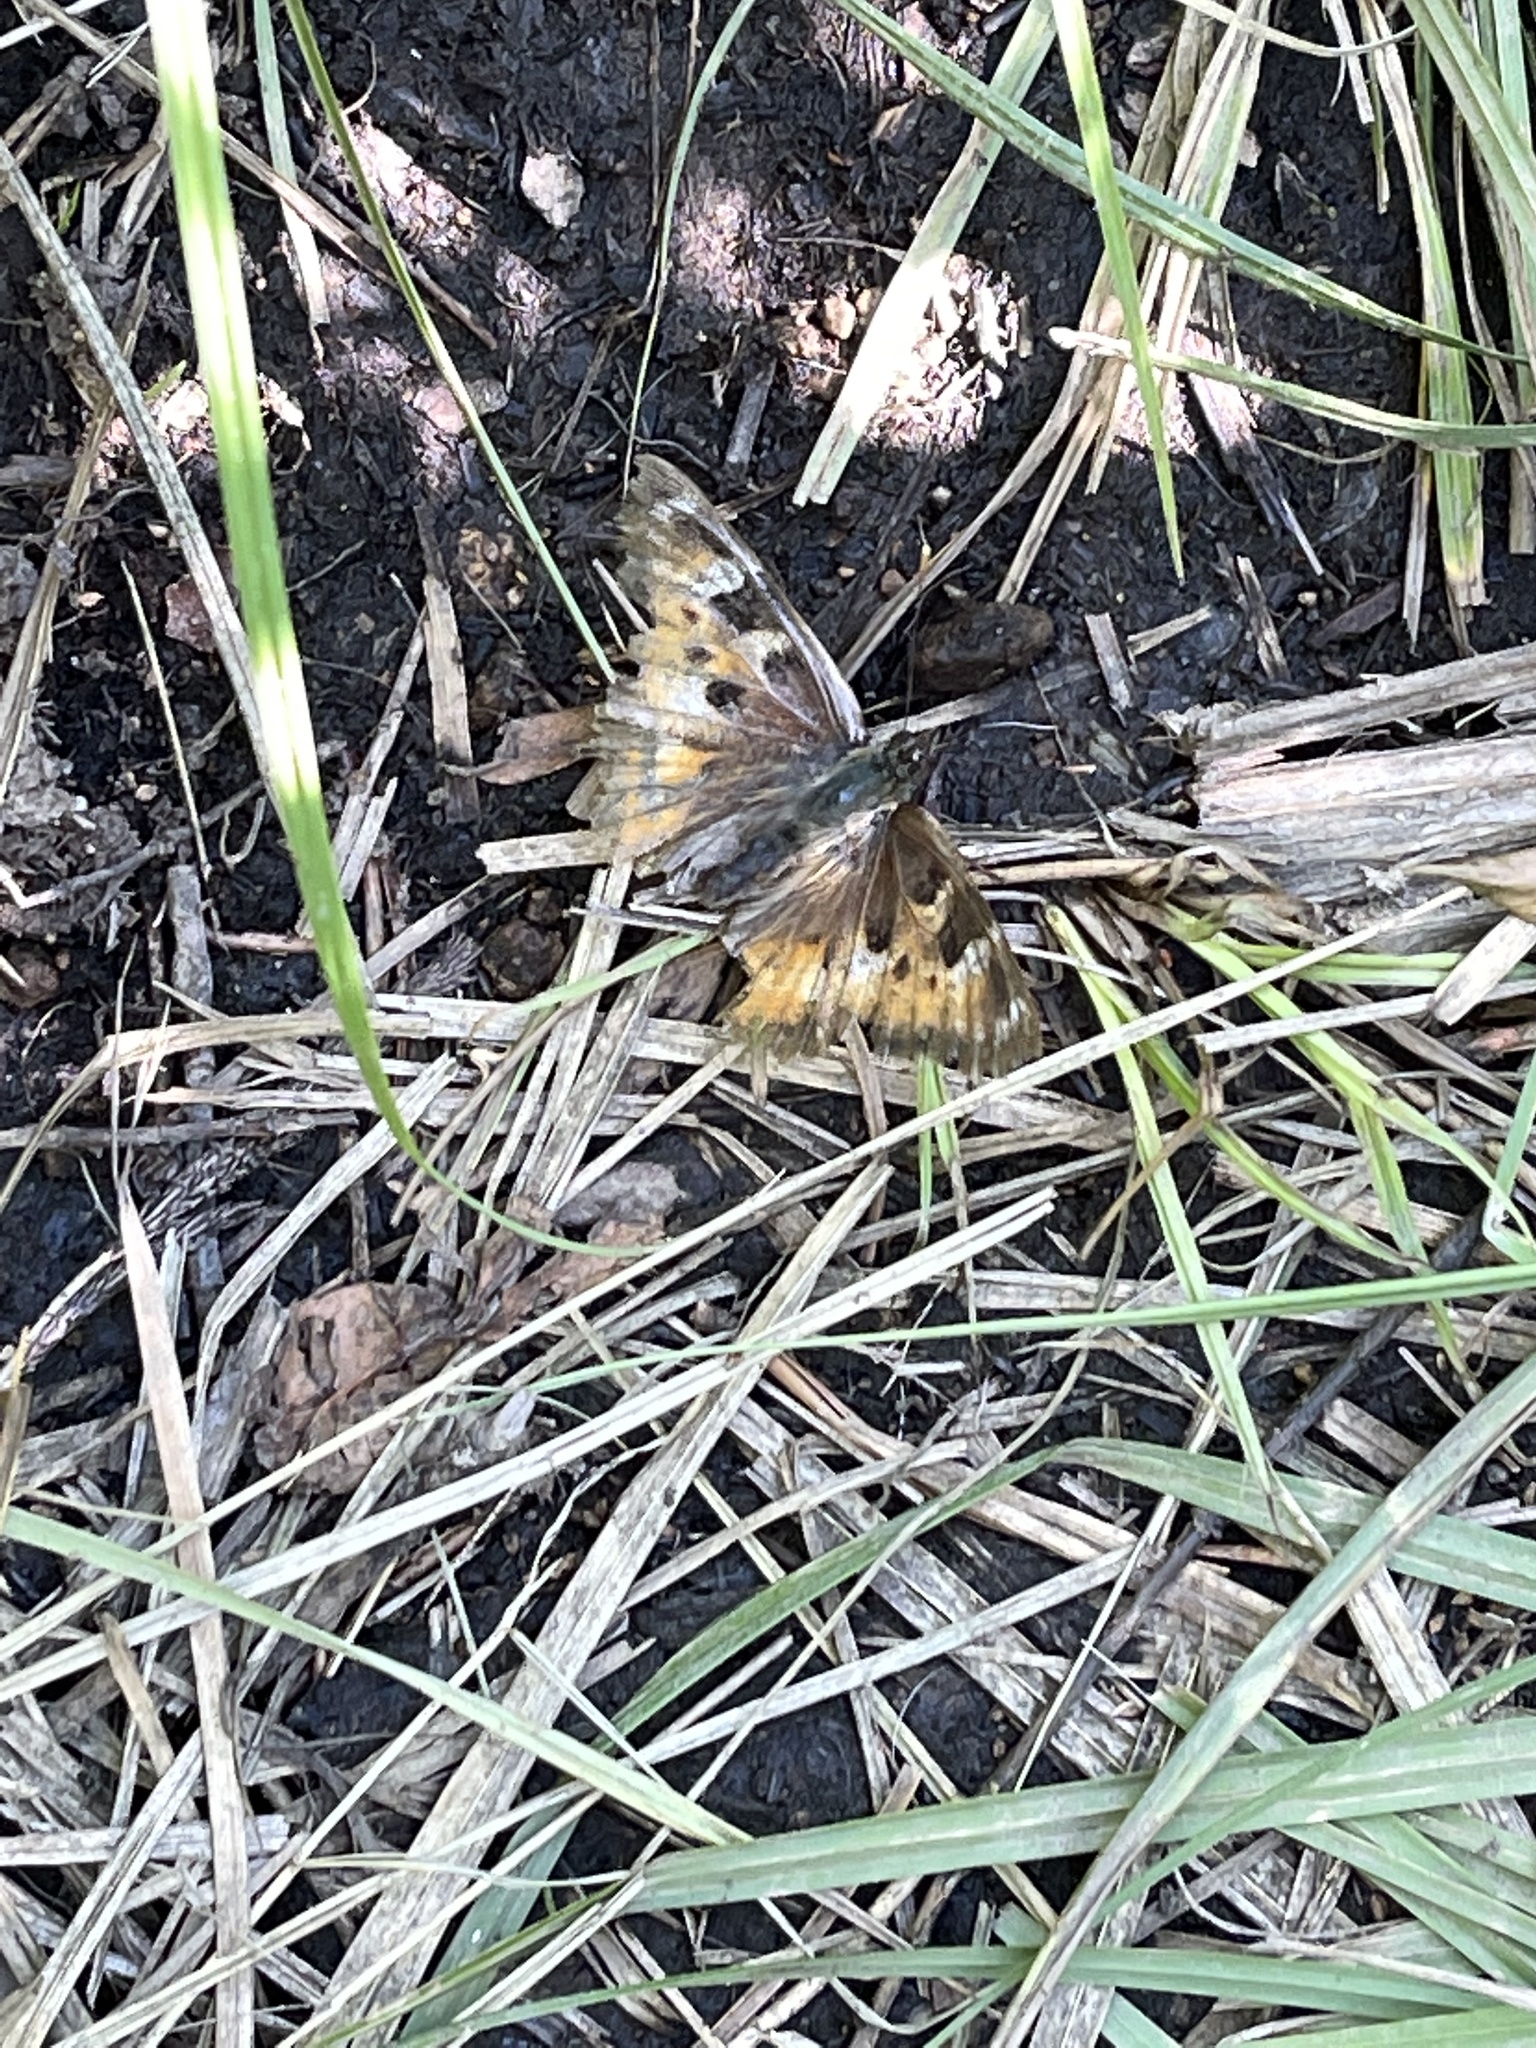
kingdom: Animalia
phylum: Arthropoda
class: Insecta
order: Lepidoptera
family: Nymphalidae
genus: Nymphalis
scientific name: Nymphalis californica
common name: California tortoiseshell
